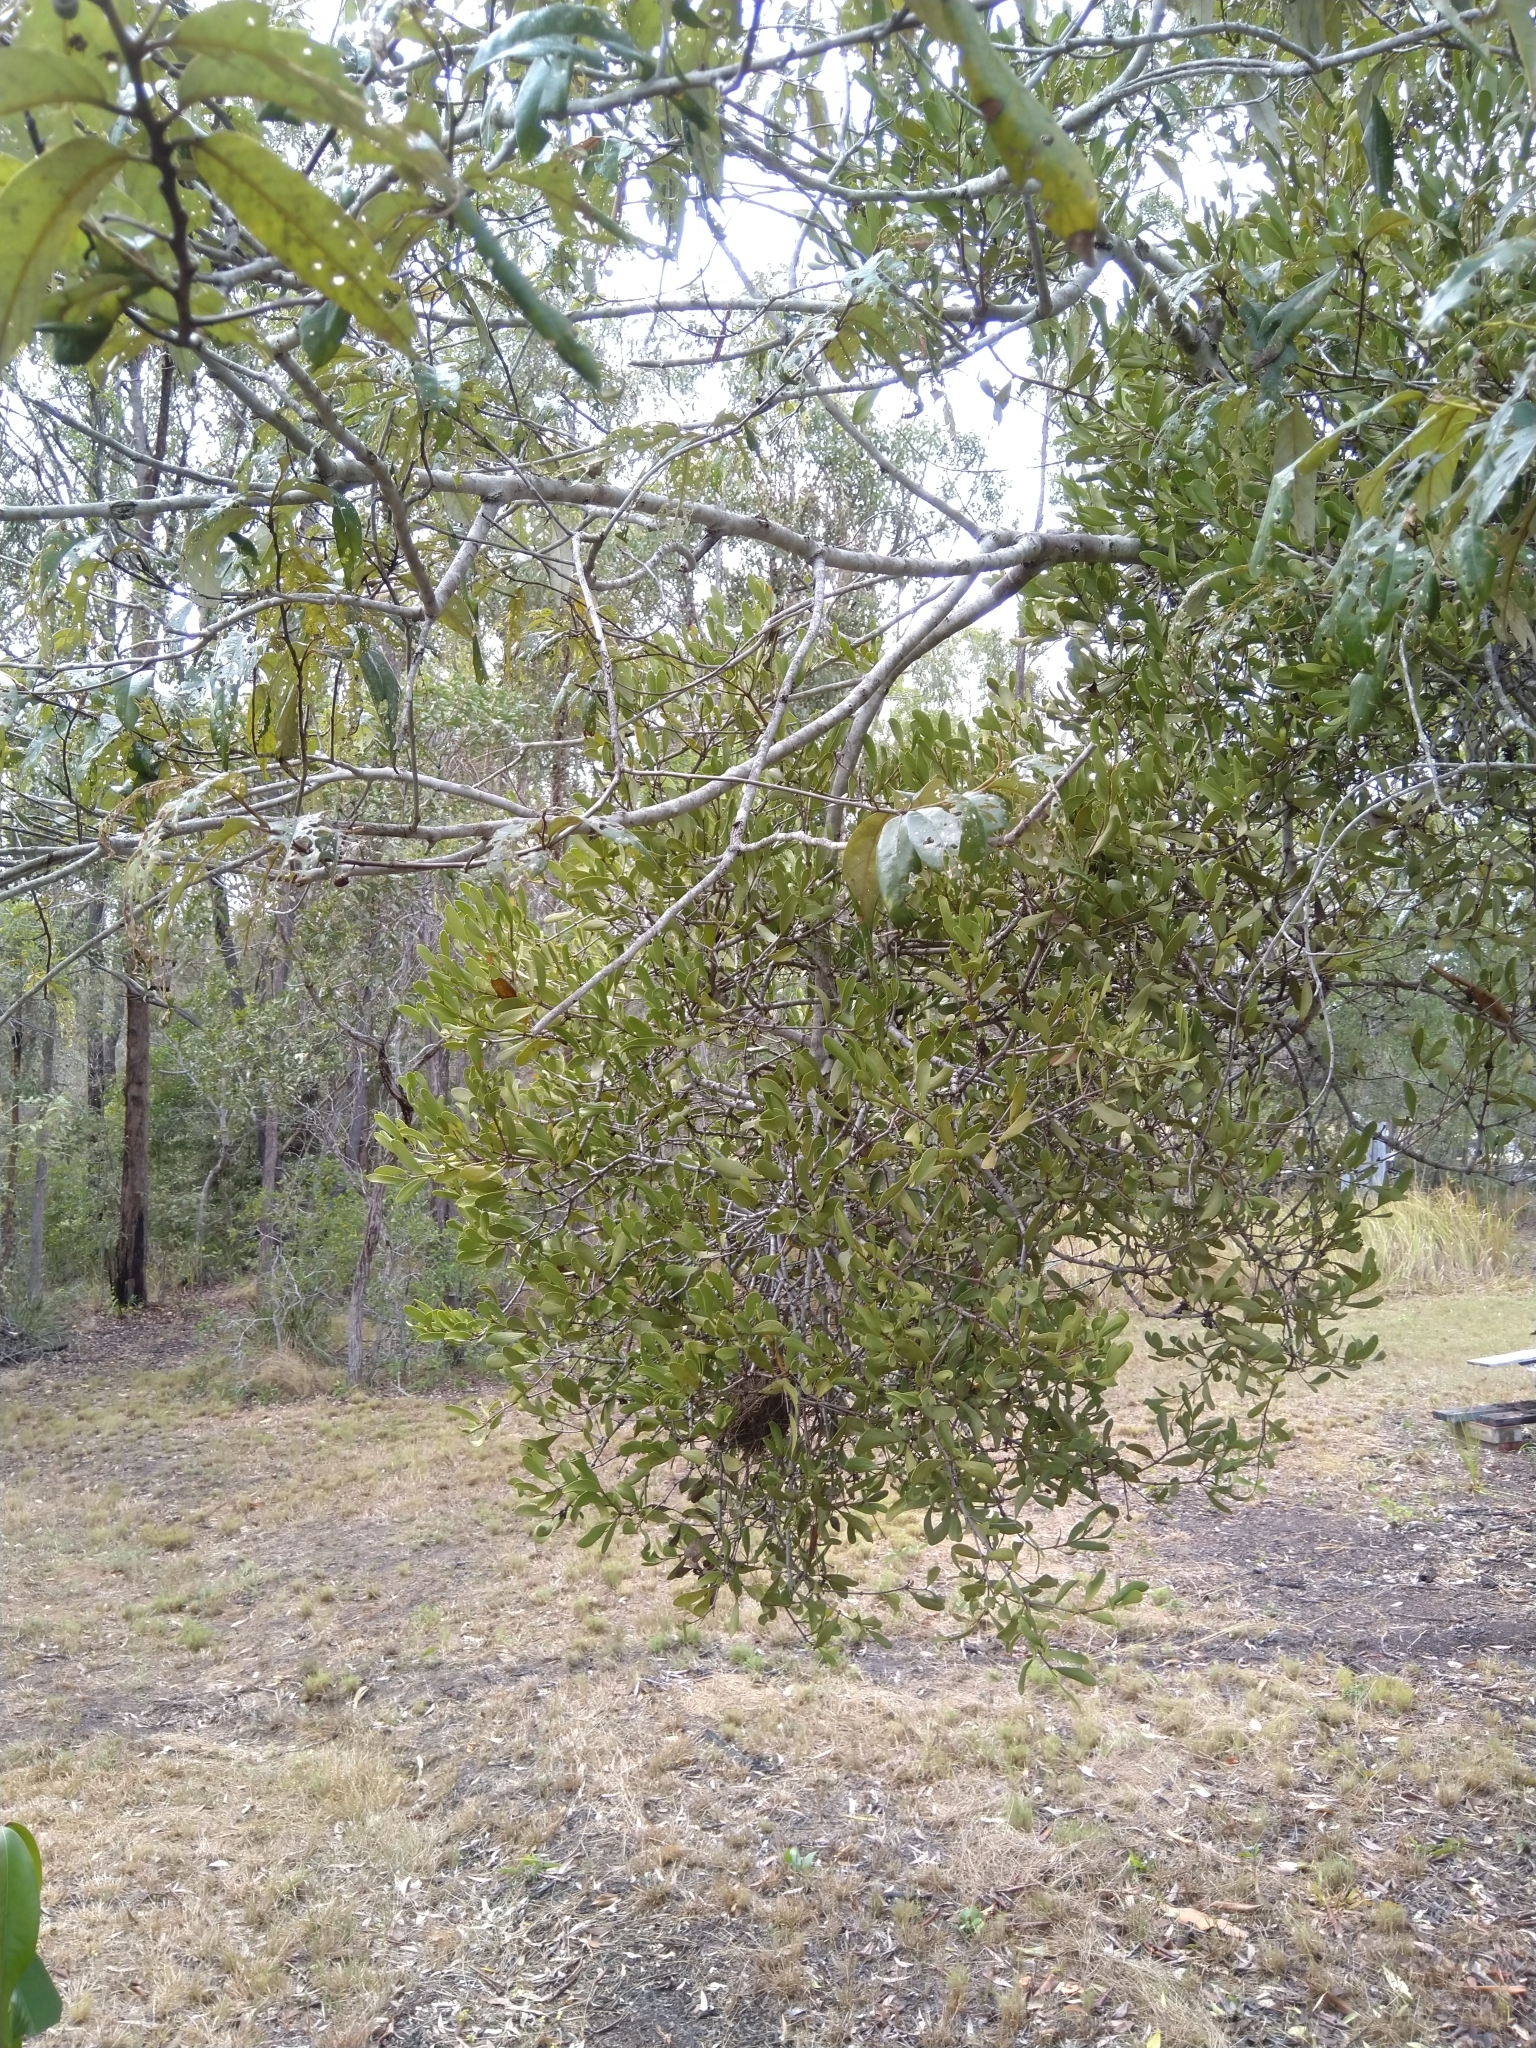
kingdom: Plantae
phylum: Tracheophyta
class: Magnoliopsida
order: Santalales
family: Loranthaceae
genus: Amyema
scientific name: Amyema conspicua
